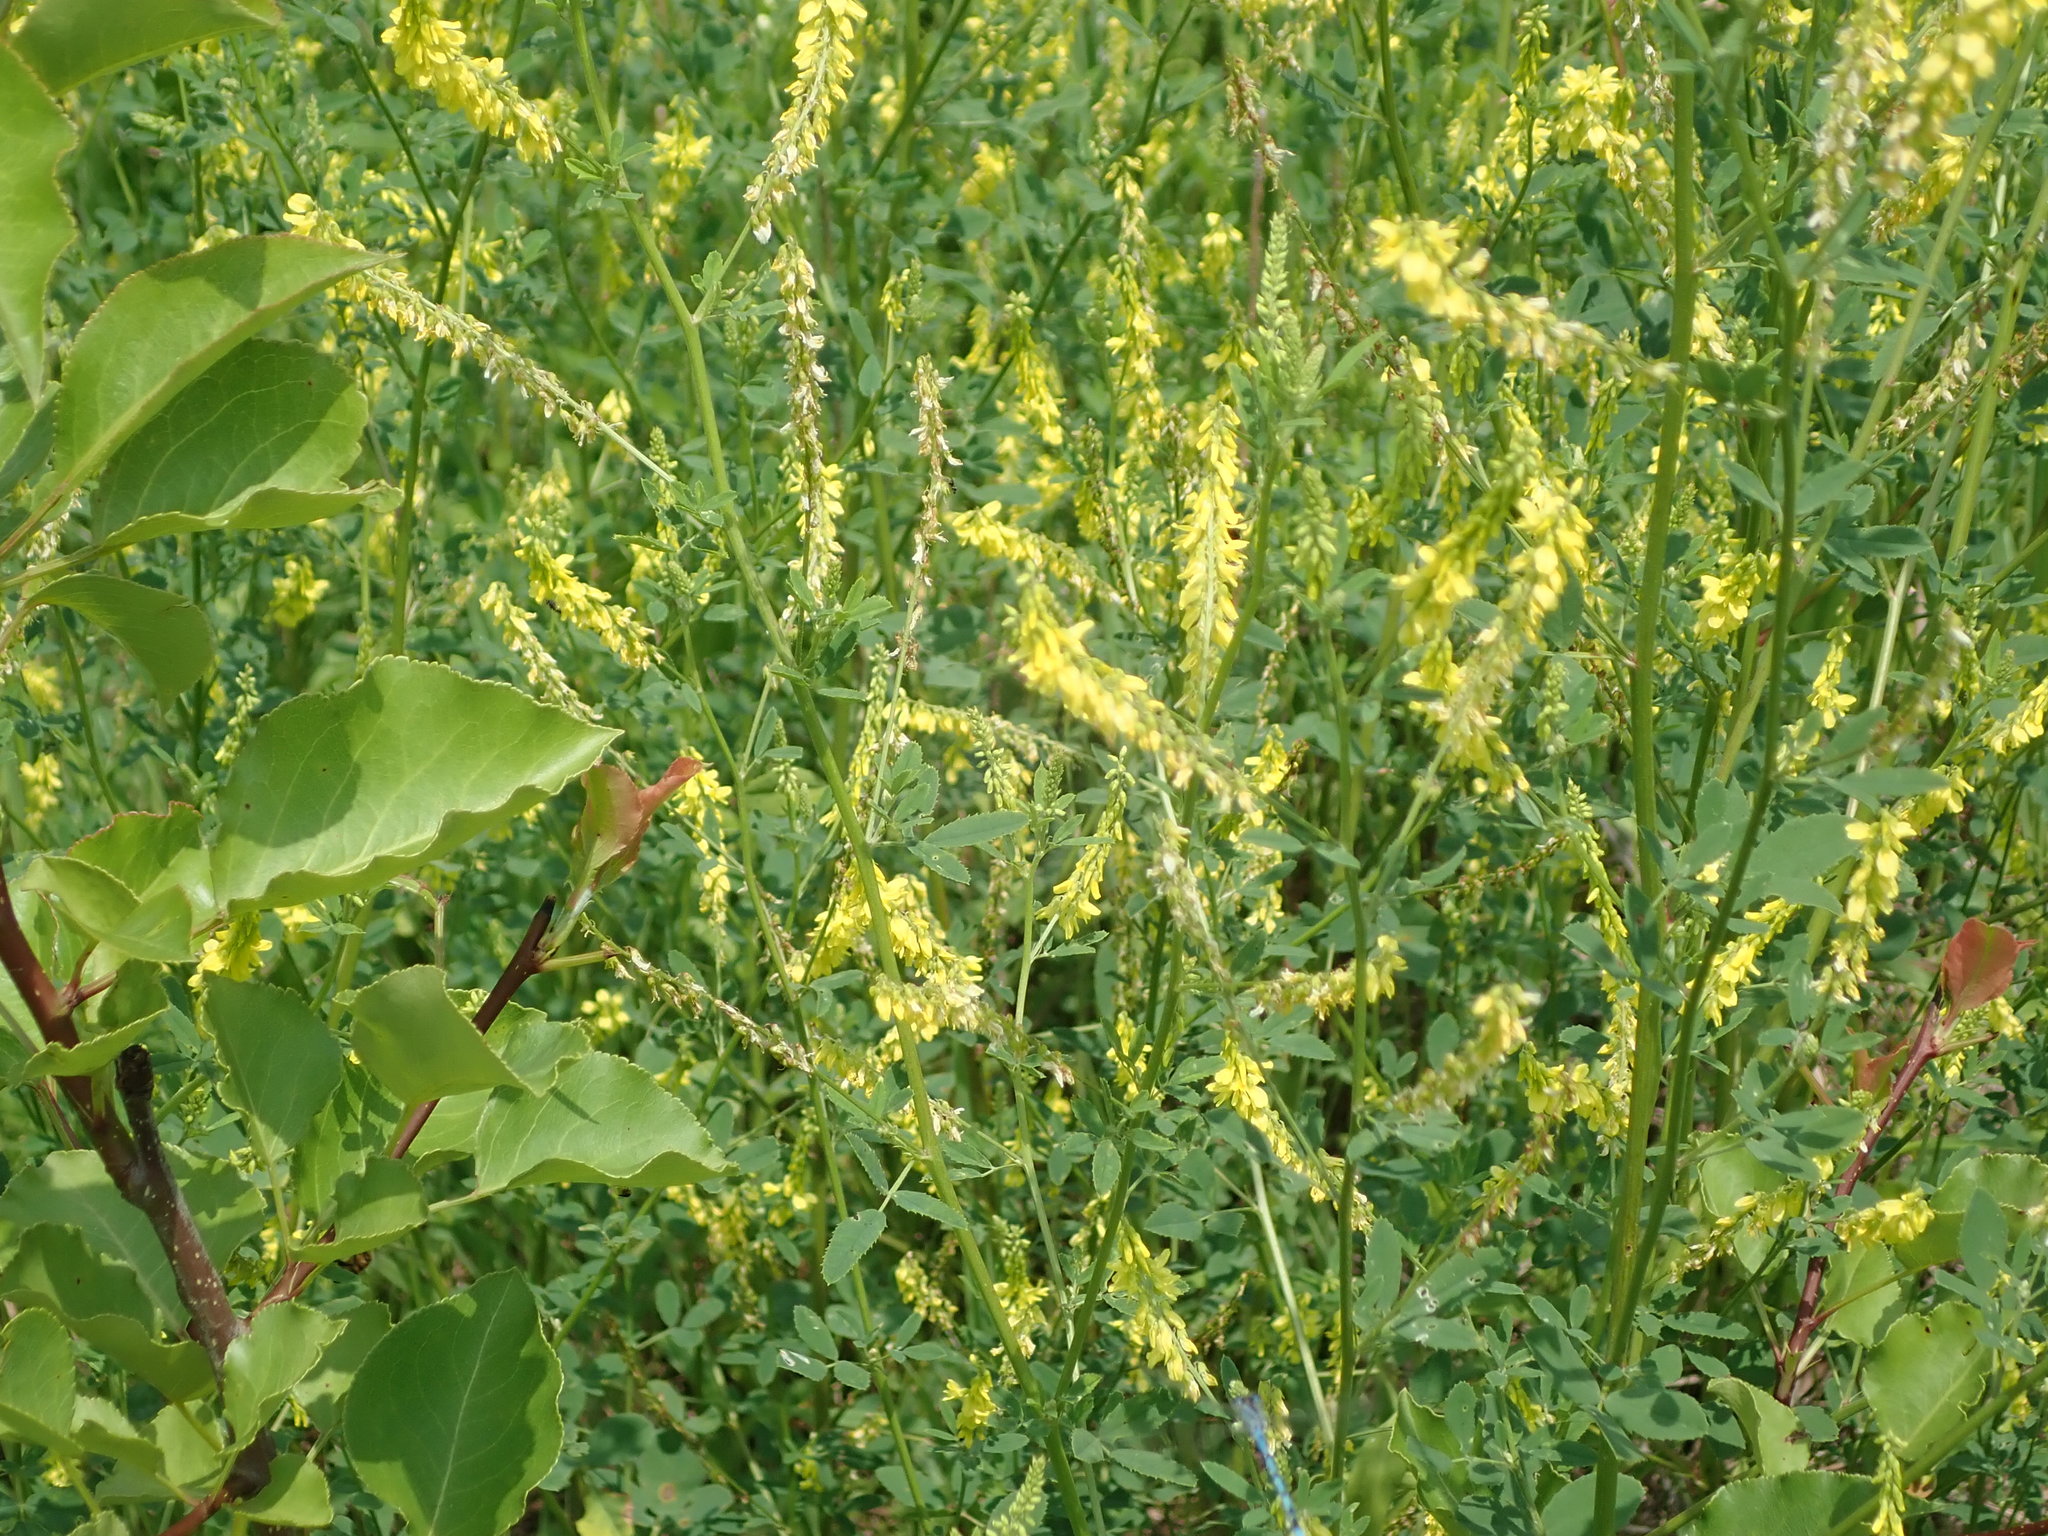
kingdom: Plantae
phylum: Tracheophyta
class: Magnoliopsida
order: Fabales
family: Fabaceae
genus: Melilotus
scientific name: Melilotus officinalis
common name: Sweetclover
